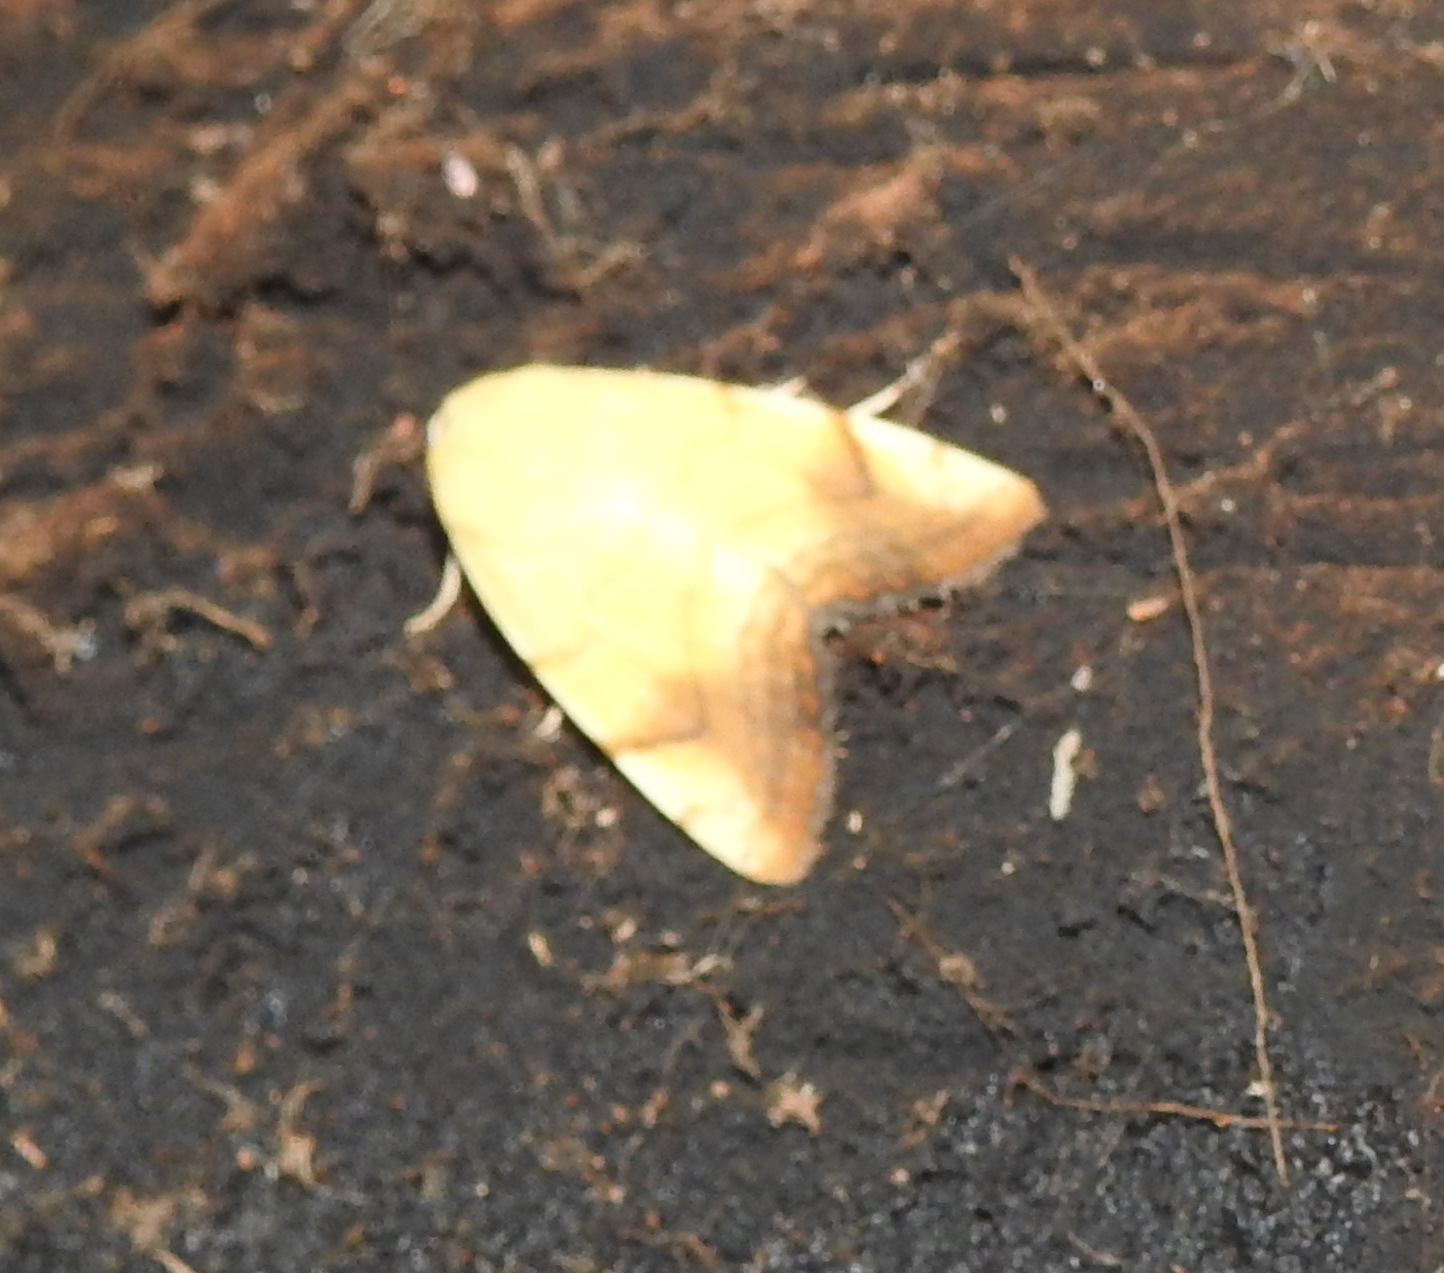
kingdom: Animalia
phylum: Arthropoda
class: Insecta
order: Lepidoptera
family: Nolidae
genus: Xanthodes
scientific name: Xanthodes albago
